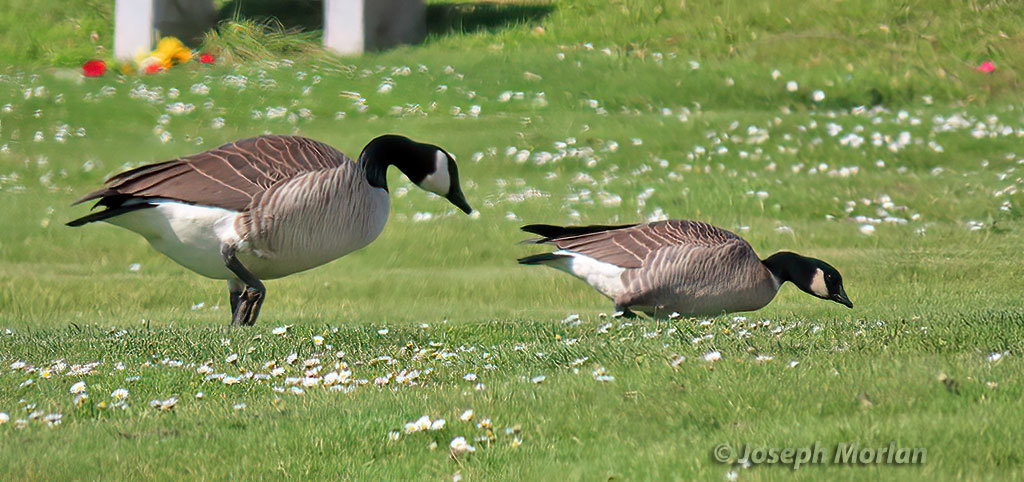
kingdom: Animalia
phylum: Chordata
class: Aves
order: Anseriformes
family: Anatidae
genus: Branta
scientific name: Branta canadensis
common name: Canada goose
